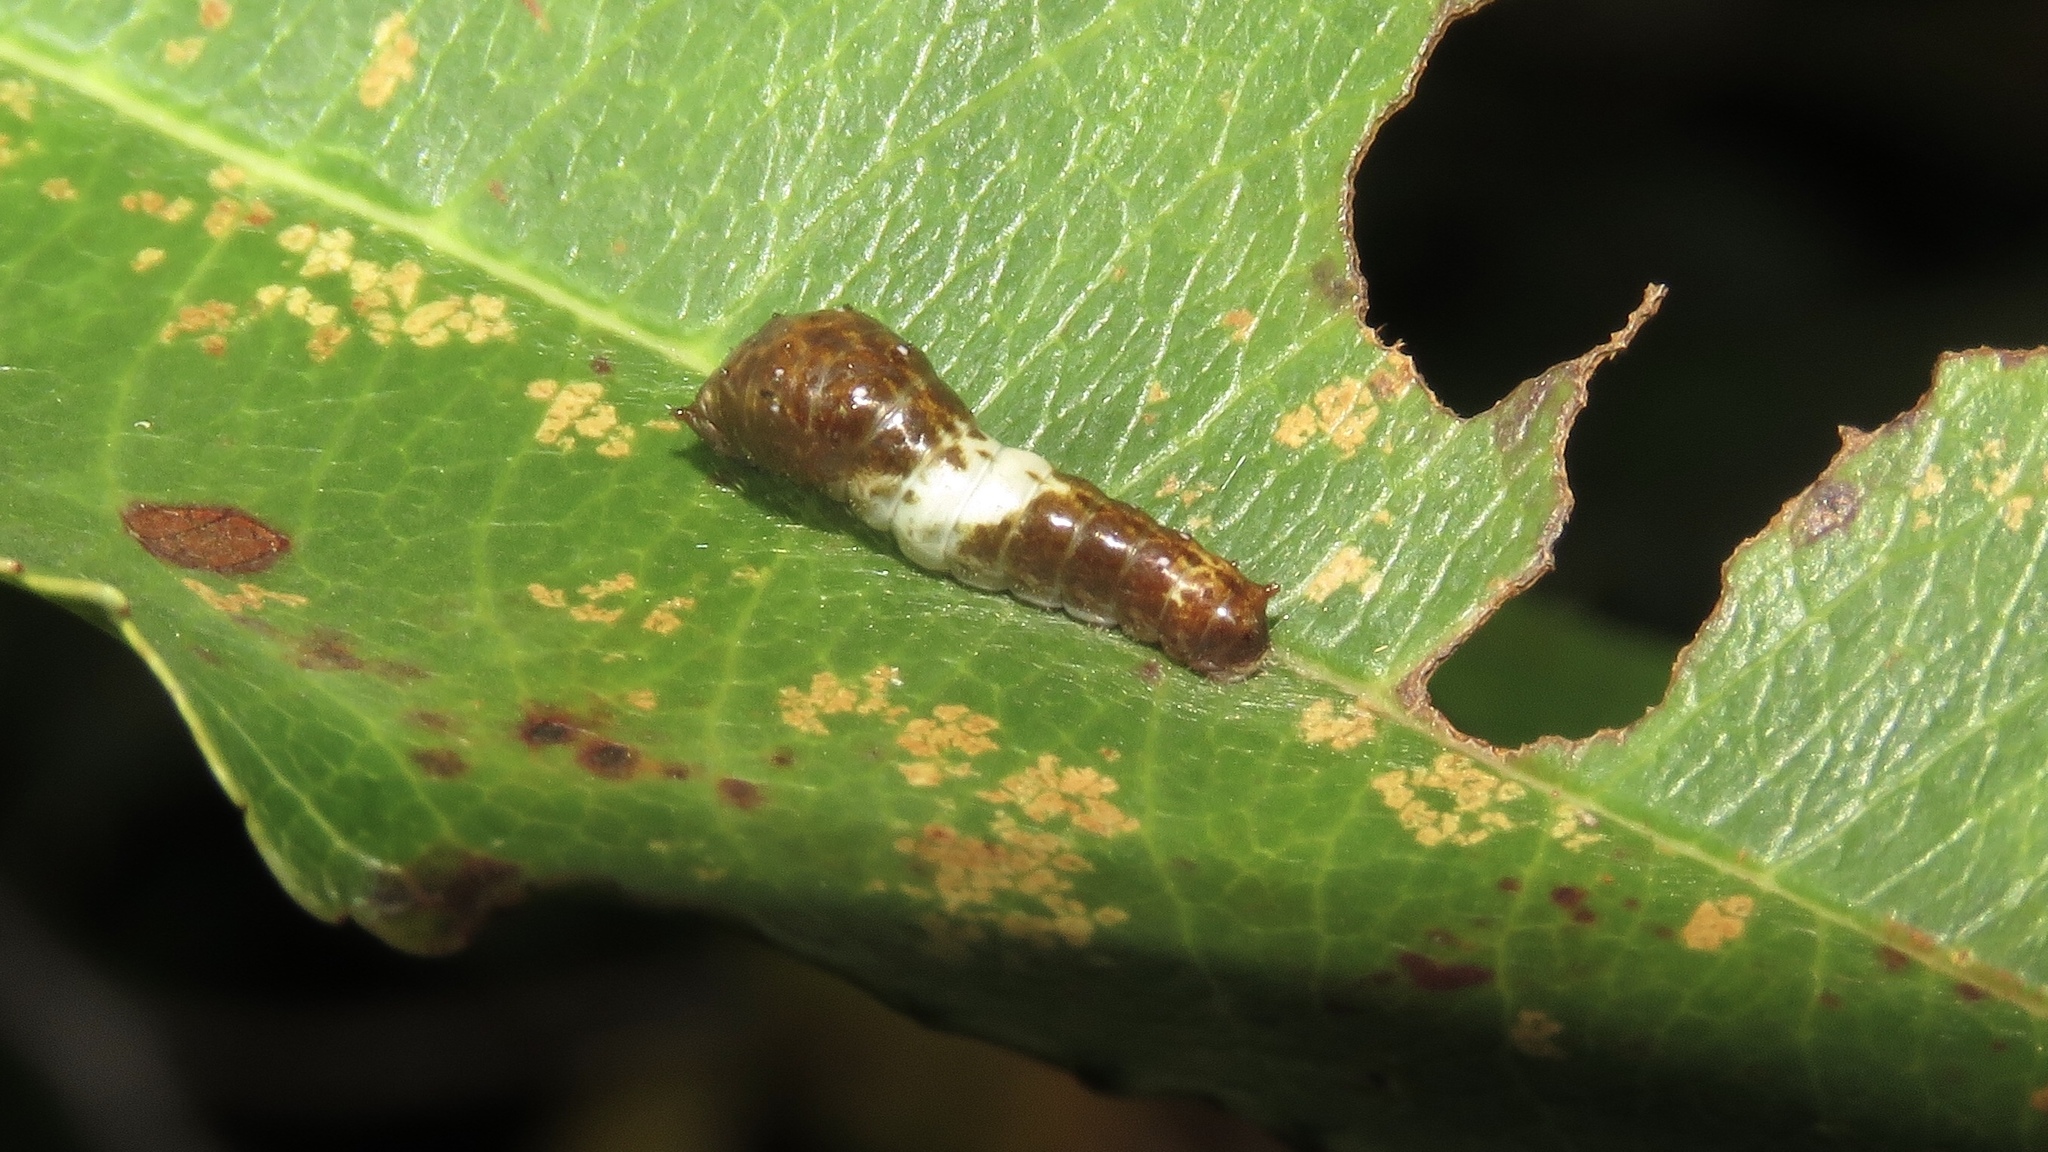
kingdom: Animalia
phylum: Arthropoda
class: Insecta
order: Lepidoptera
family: Papilionidae
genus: Papilio
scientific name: Papilio glaucus
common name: Tiger swallowtail
